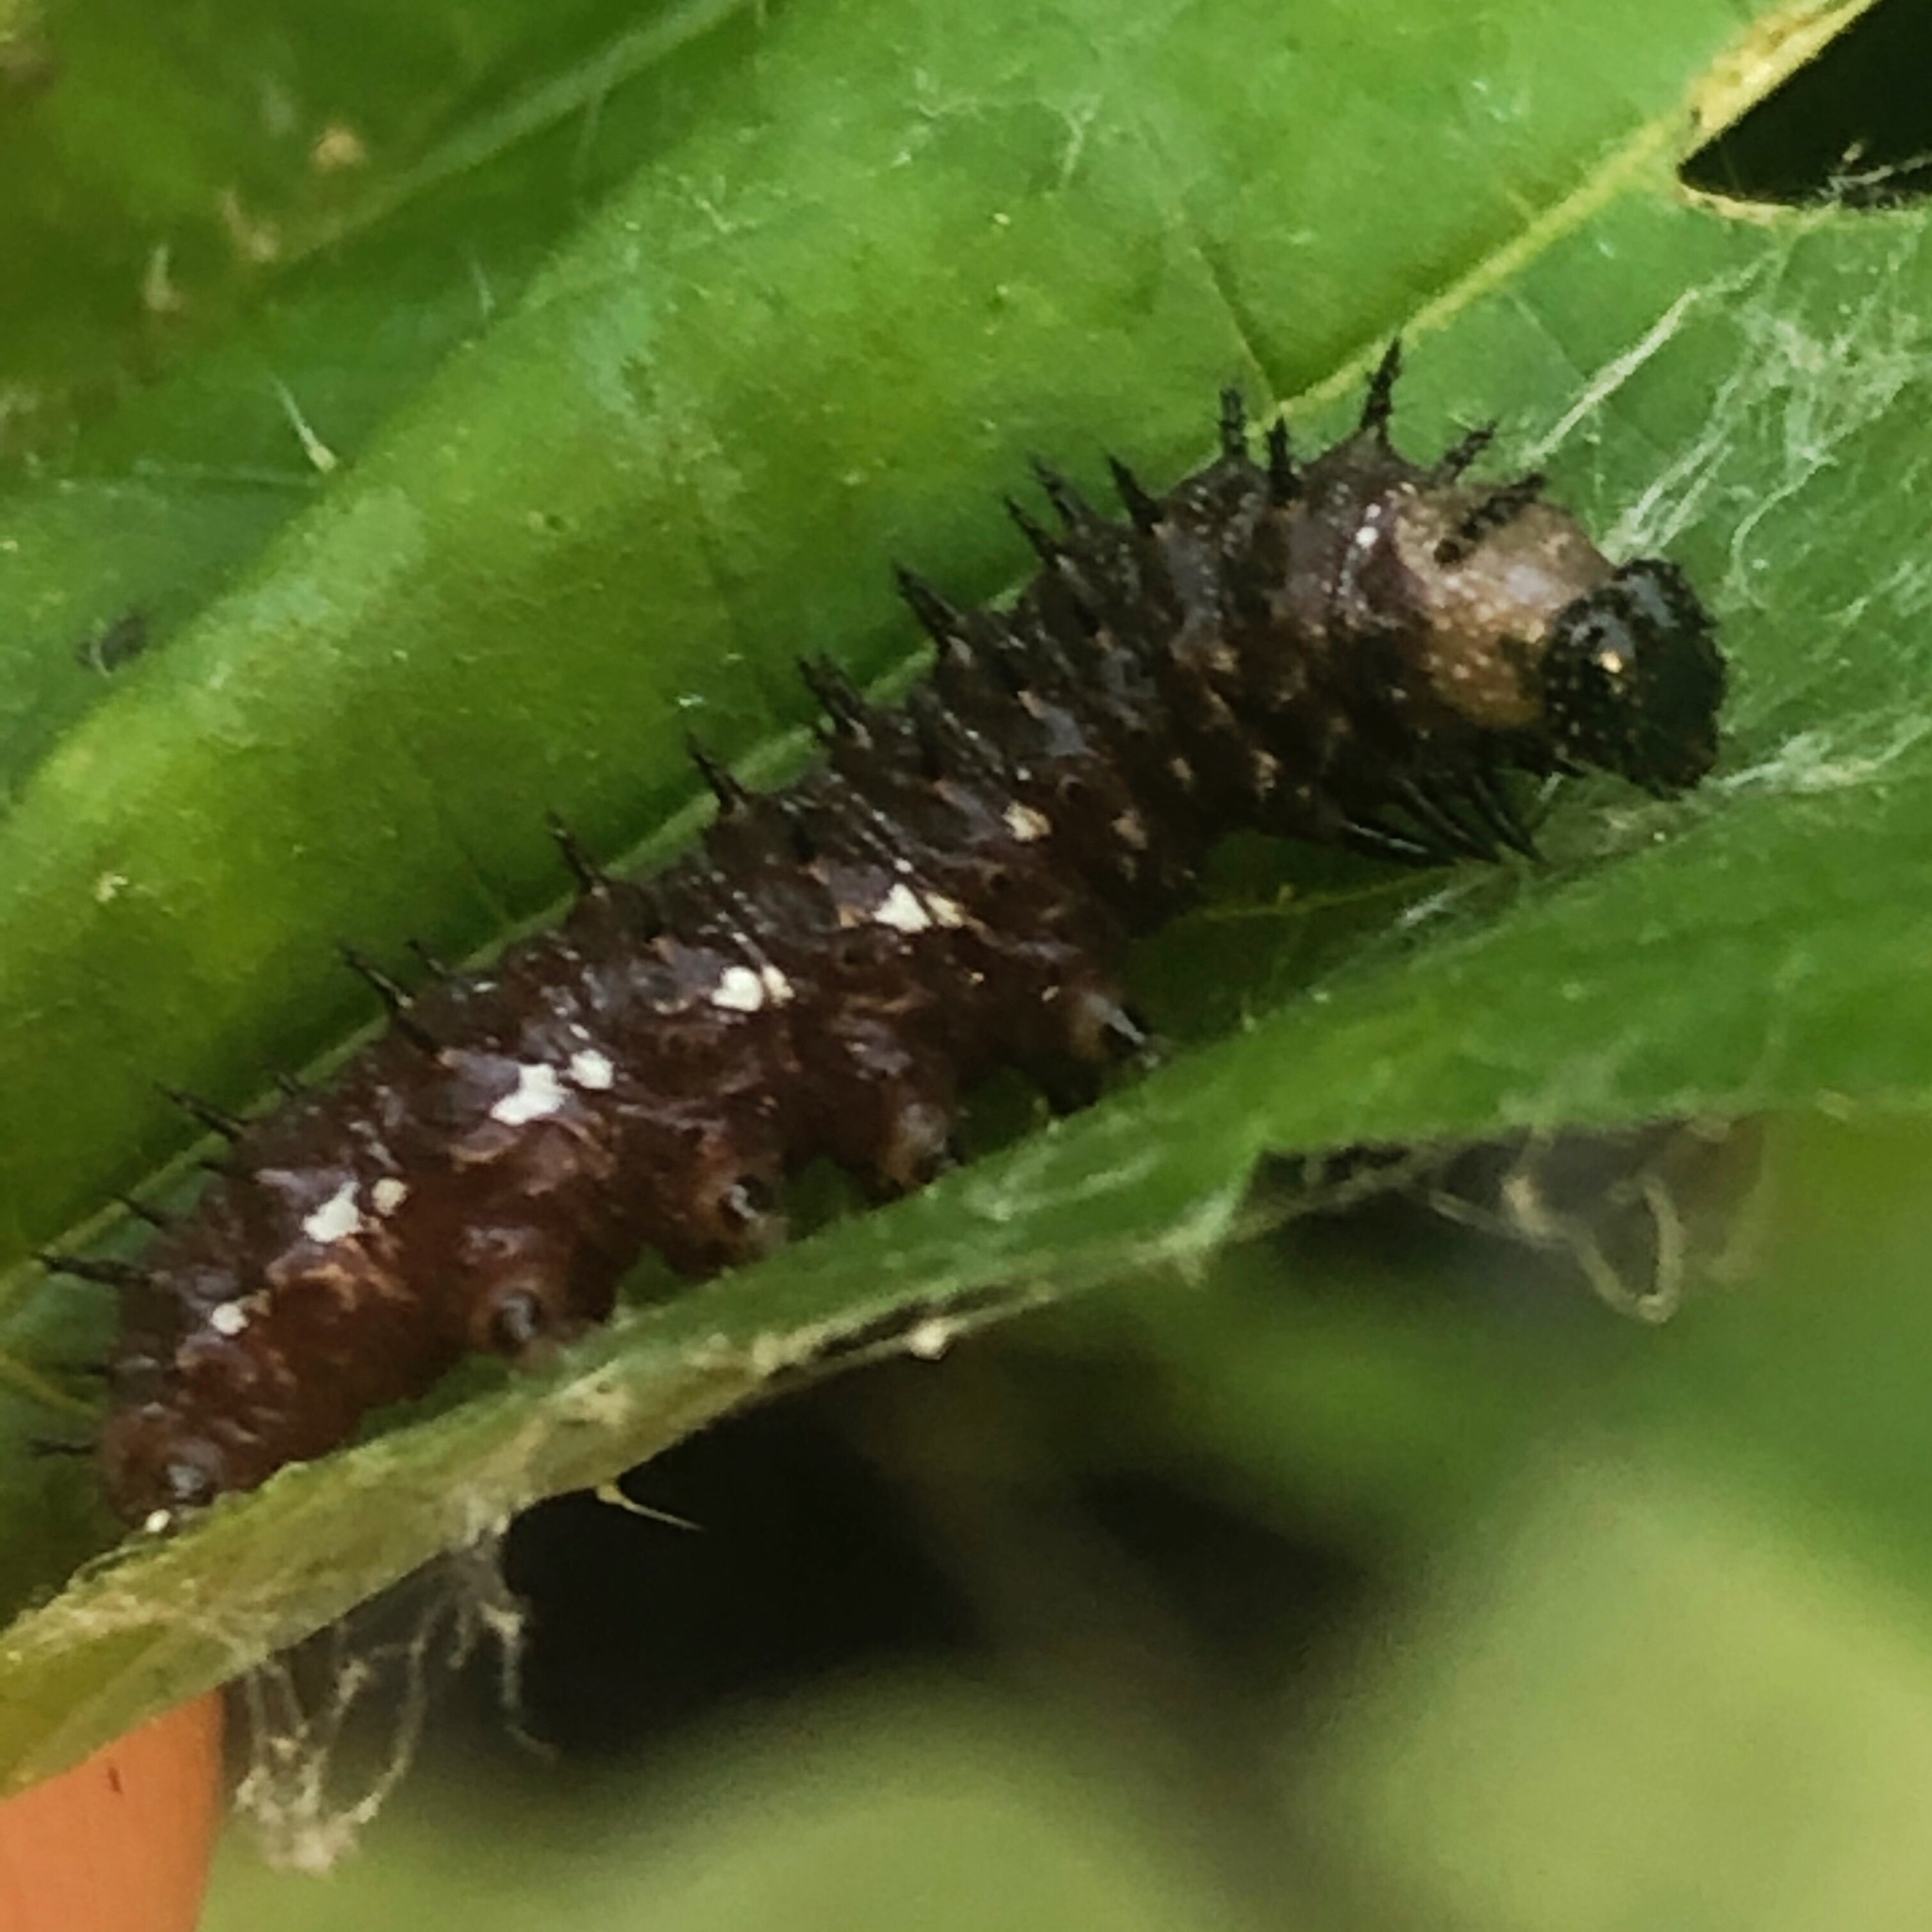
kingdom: Animalia
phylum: Arthropoda
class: Insecta
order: Lepidoptera
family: Nymphalidae
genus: Vanessa
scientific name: Vanessa atalanta
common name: Red admiral
